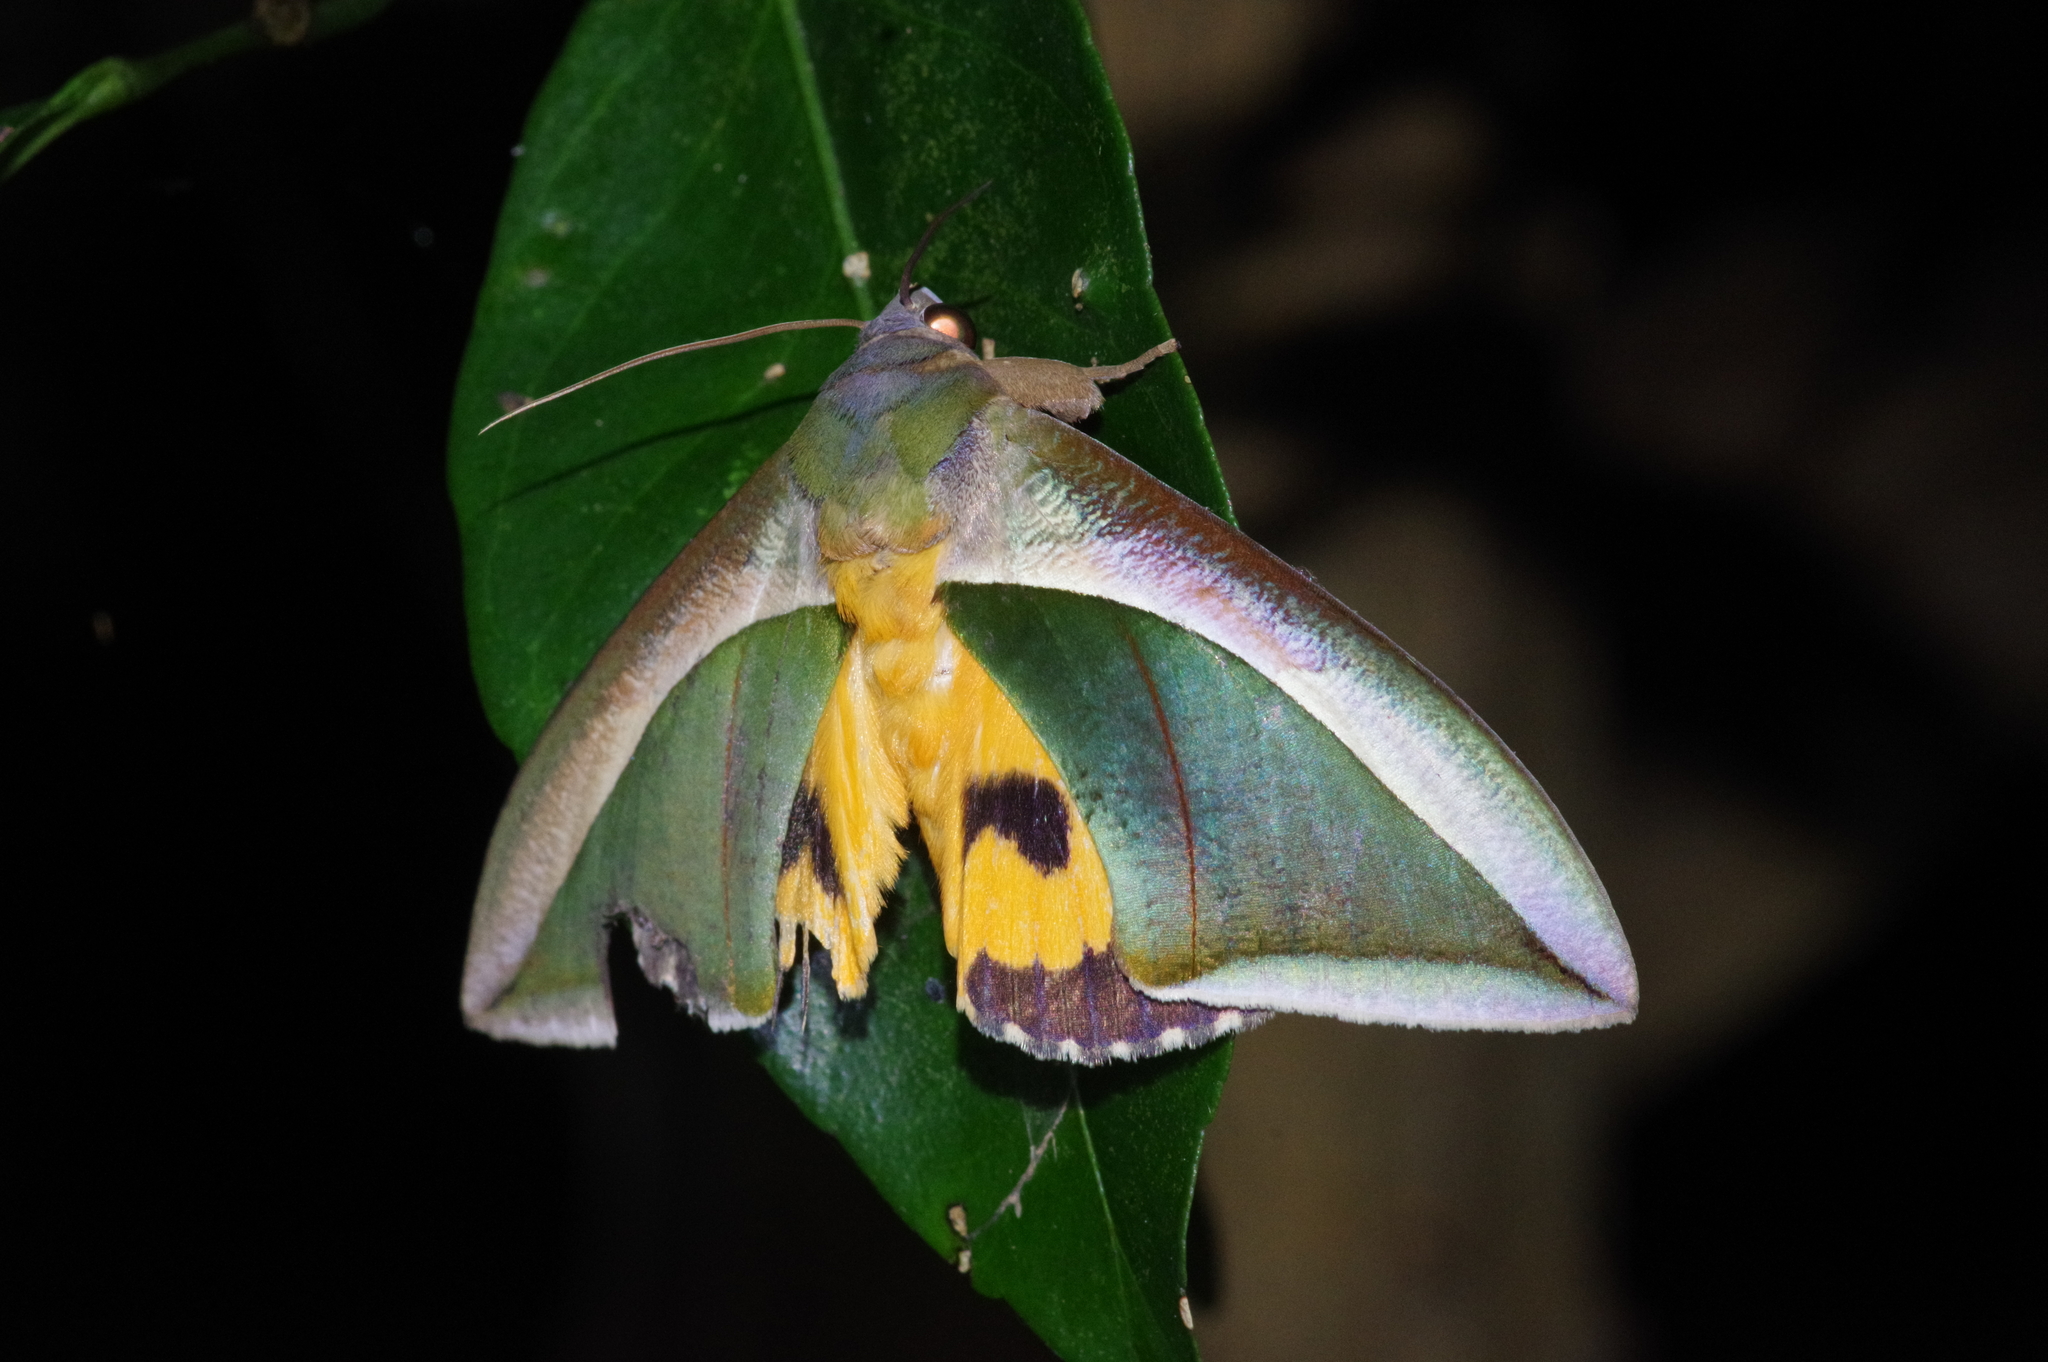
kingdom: Animalia
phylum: Arthropoda
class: Insecta
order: Lepidoptera
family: Erebidae
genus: Eudocima
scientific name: Eudocima salaminia
